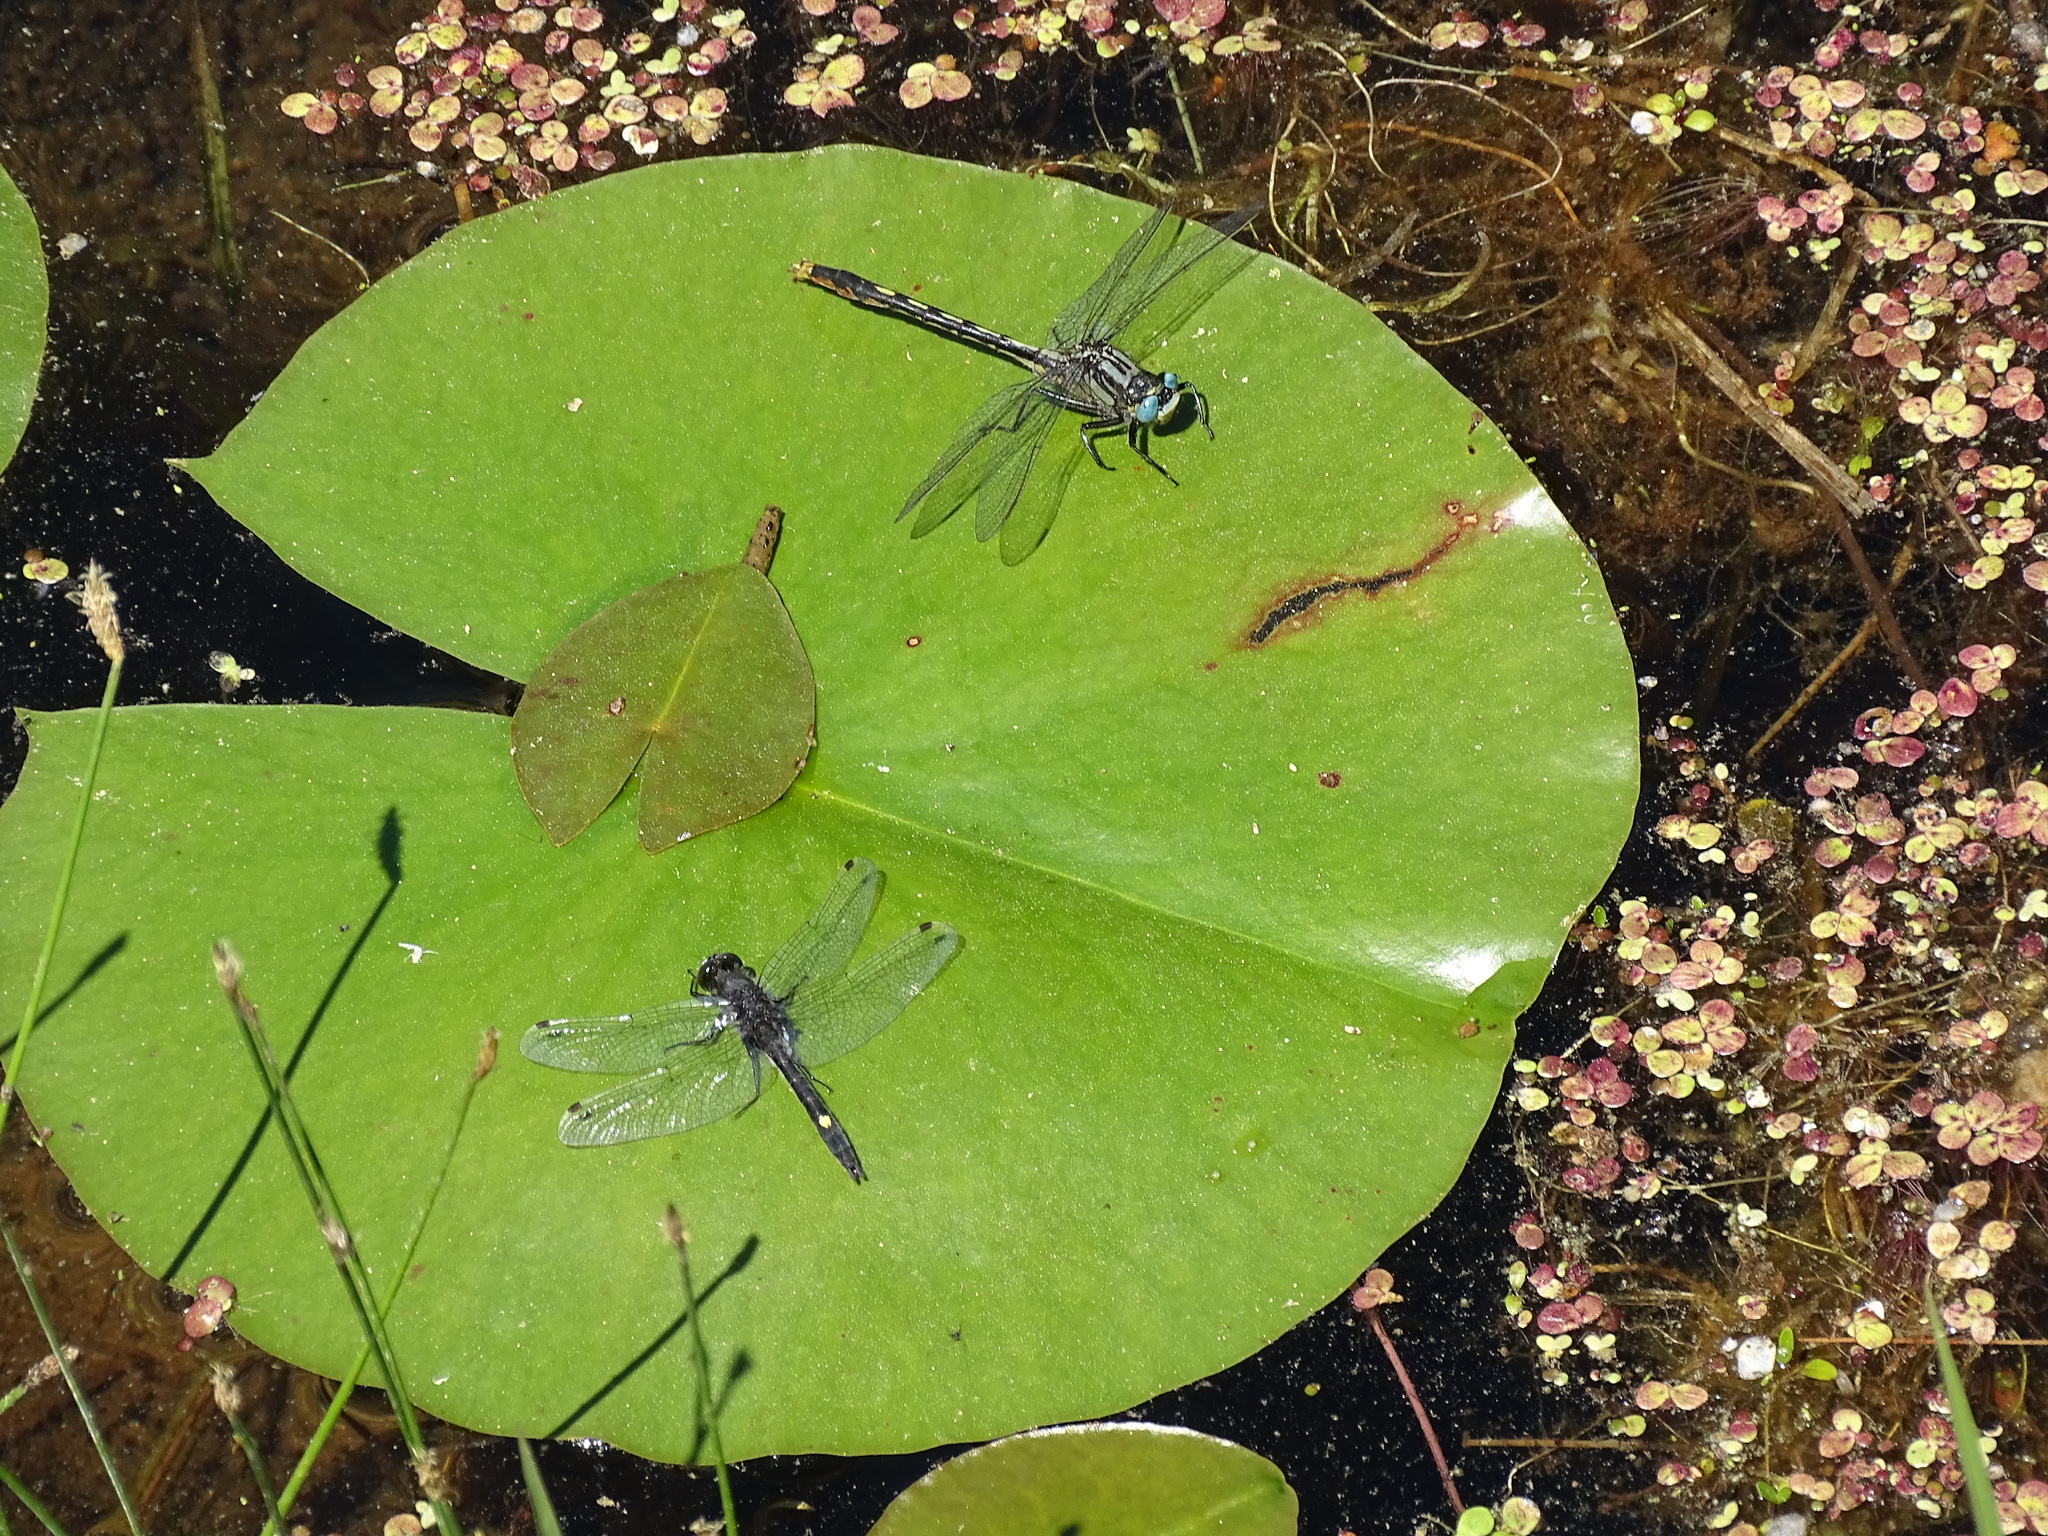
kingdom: Animalia
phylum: Arthropoda
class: Insecta
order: Odonata
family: Libellulidae
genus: Leucorrhinia
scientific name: Leucorrhinia intacta
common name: Dot-tailed whiteface
